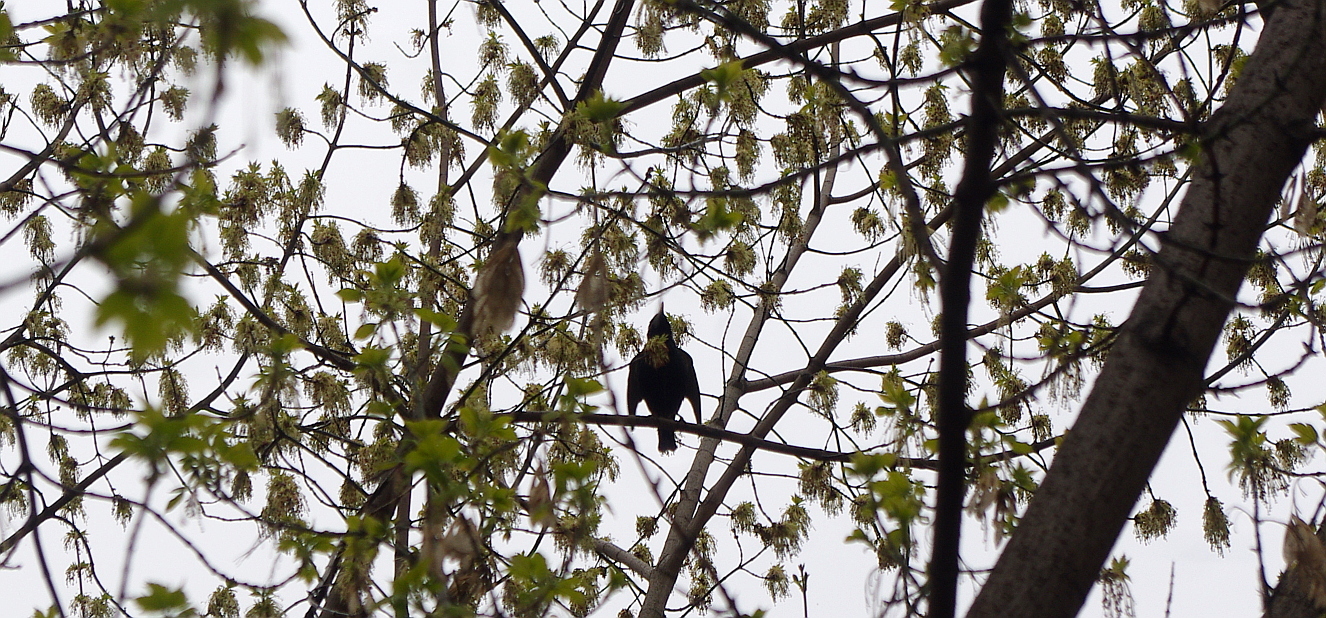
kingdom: Animalia
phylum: Chordata
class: Aves
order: Passeriformes
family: Sturnidae
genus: Sturnus
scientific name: Sturnus vulgaris
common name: Common starling
